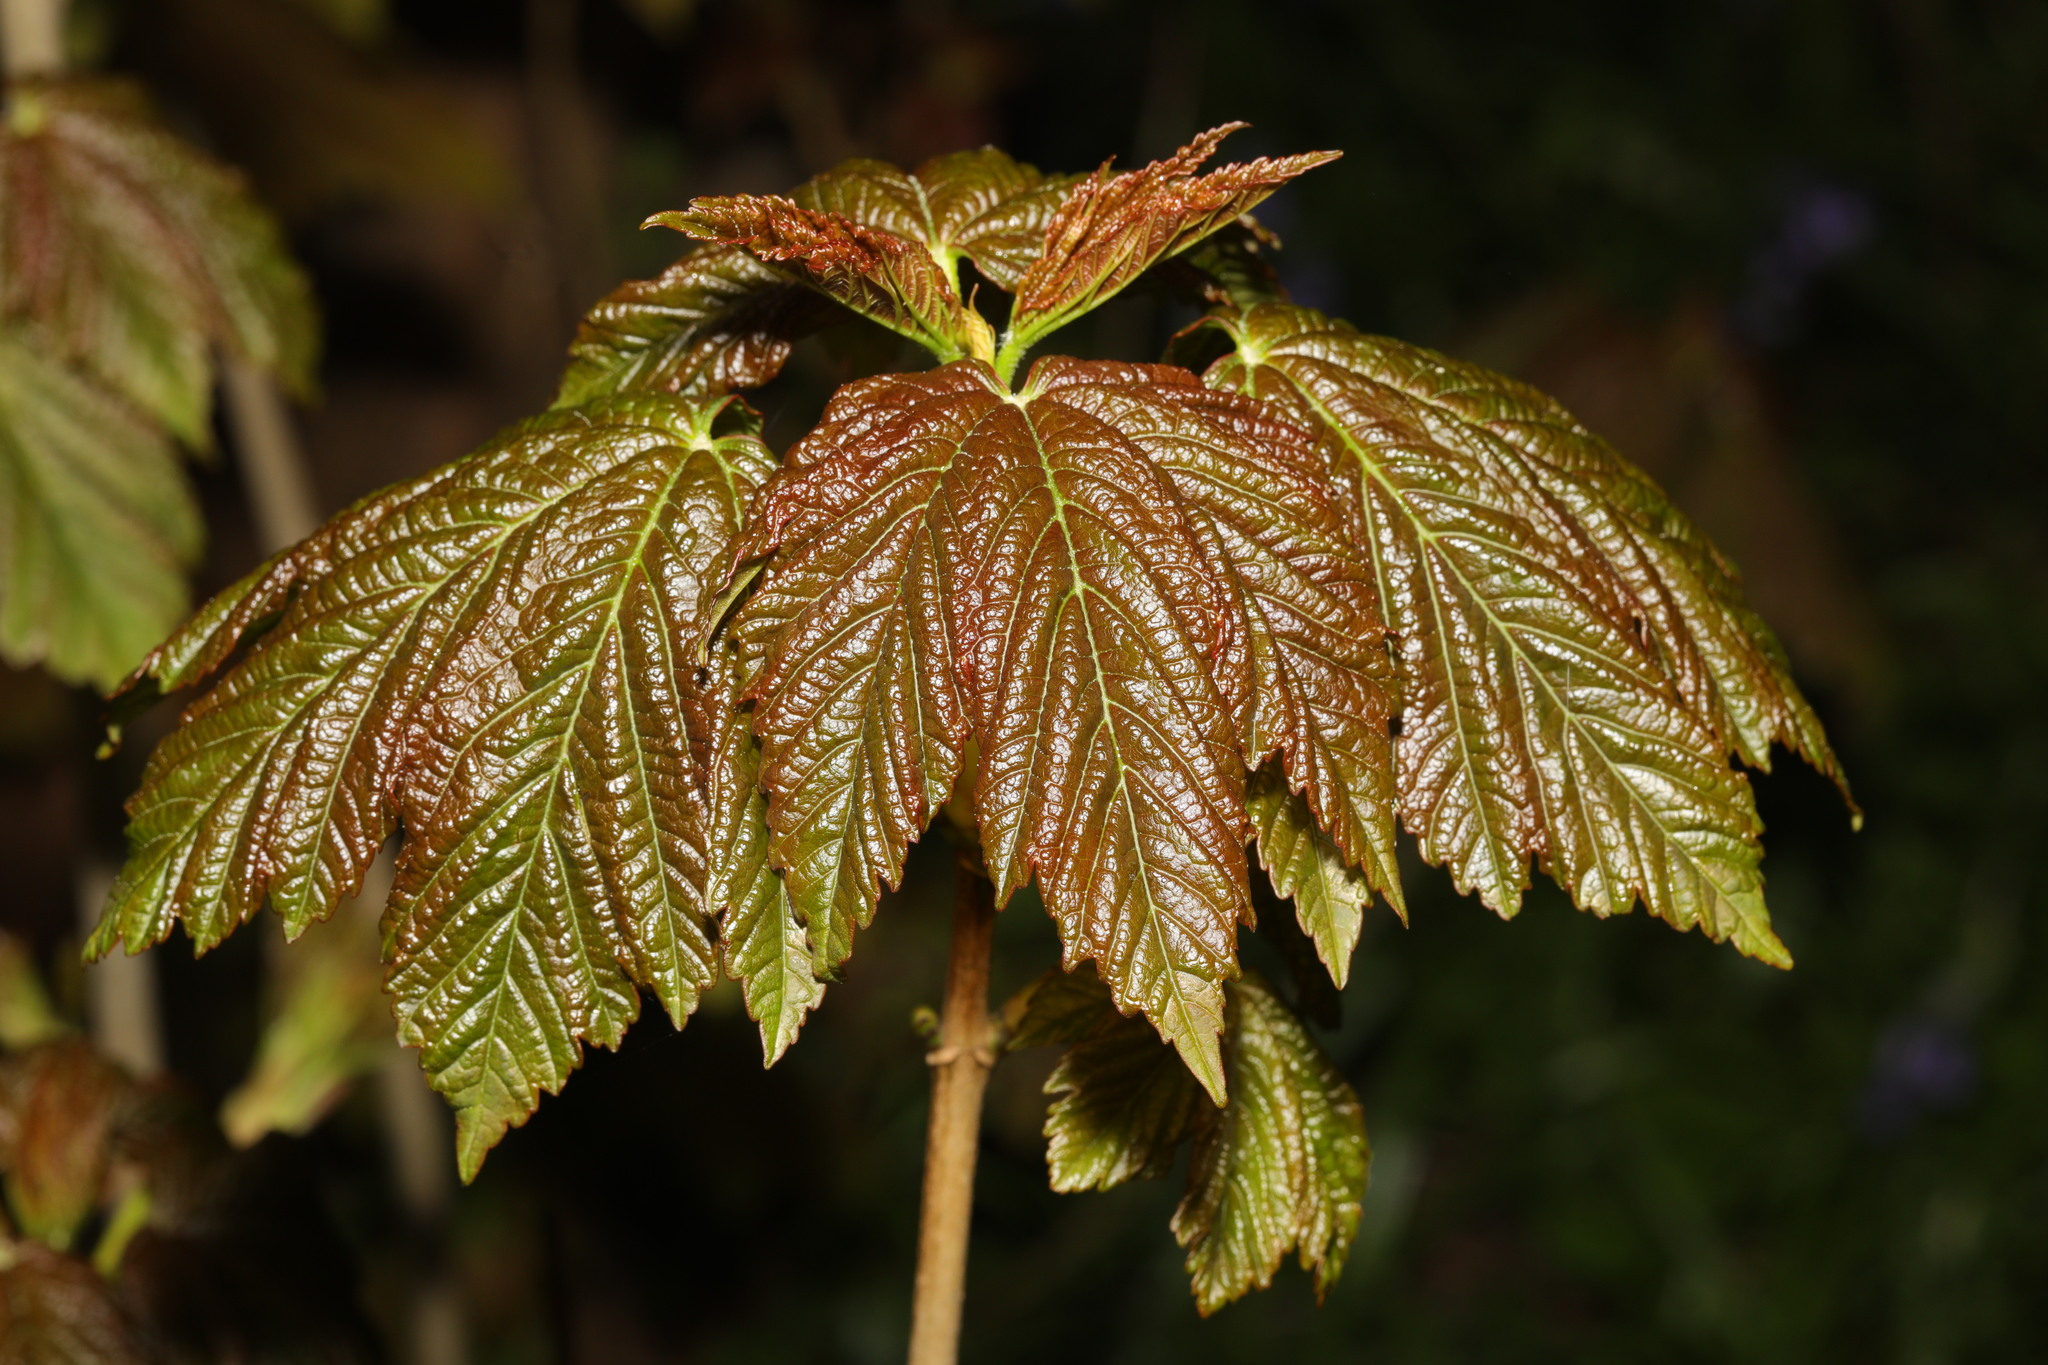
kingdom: Plantae
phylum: Tracheophyta
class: Magnoliopsida
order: Sapindales
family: Sapindaceae
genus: Acer
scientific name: Acer pseudoplatanus
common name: Sycamore
